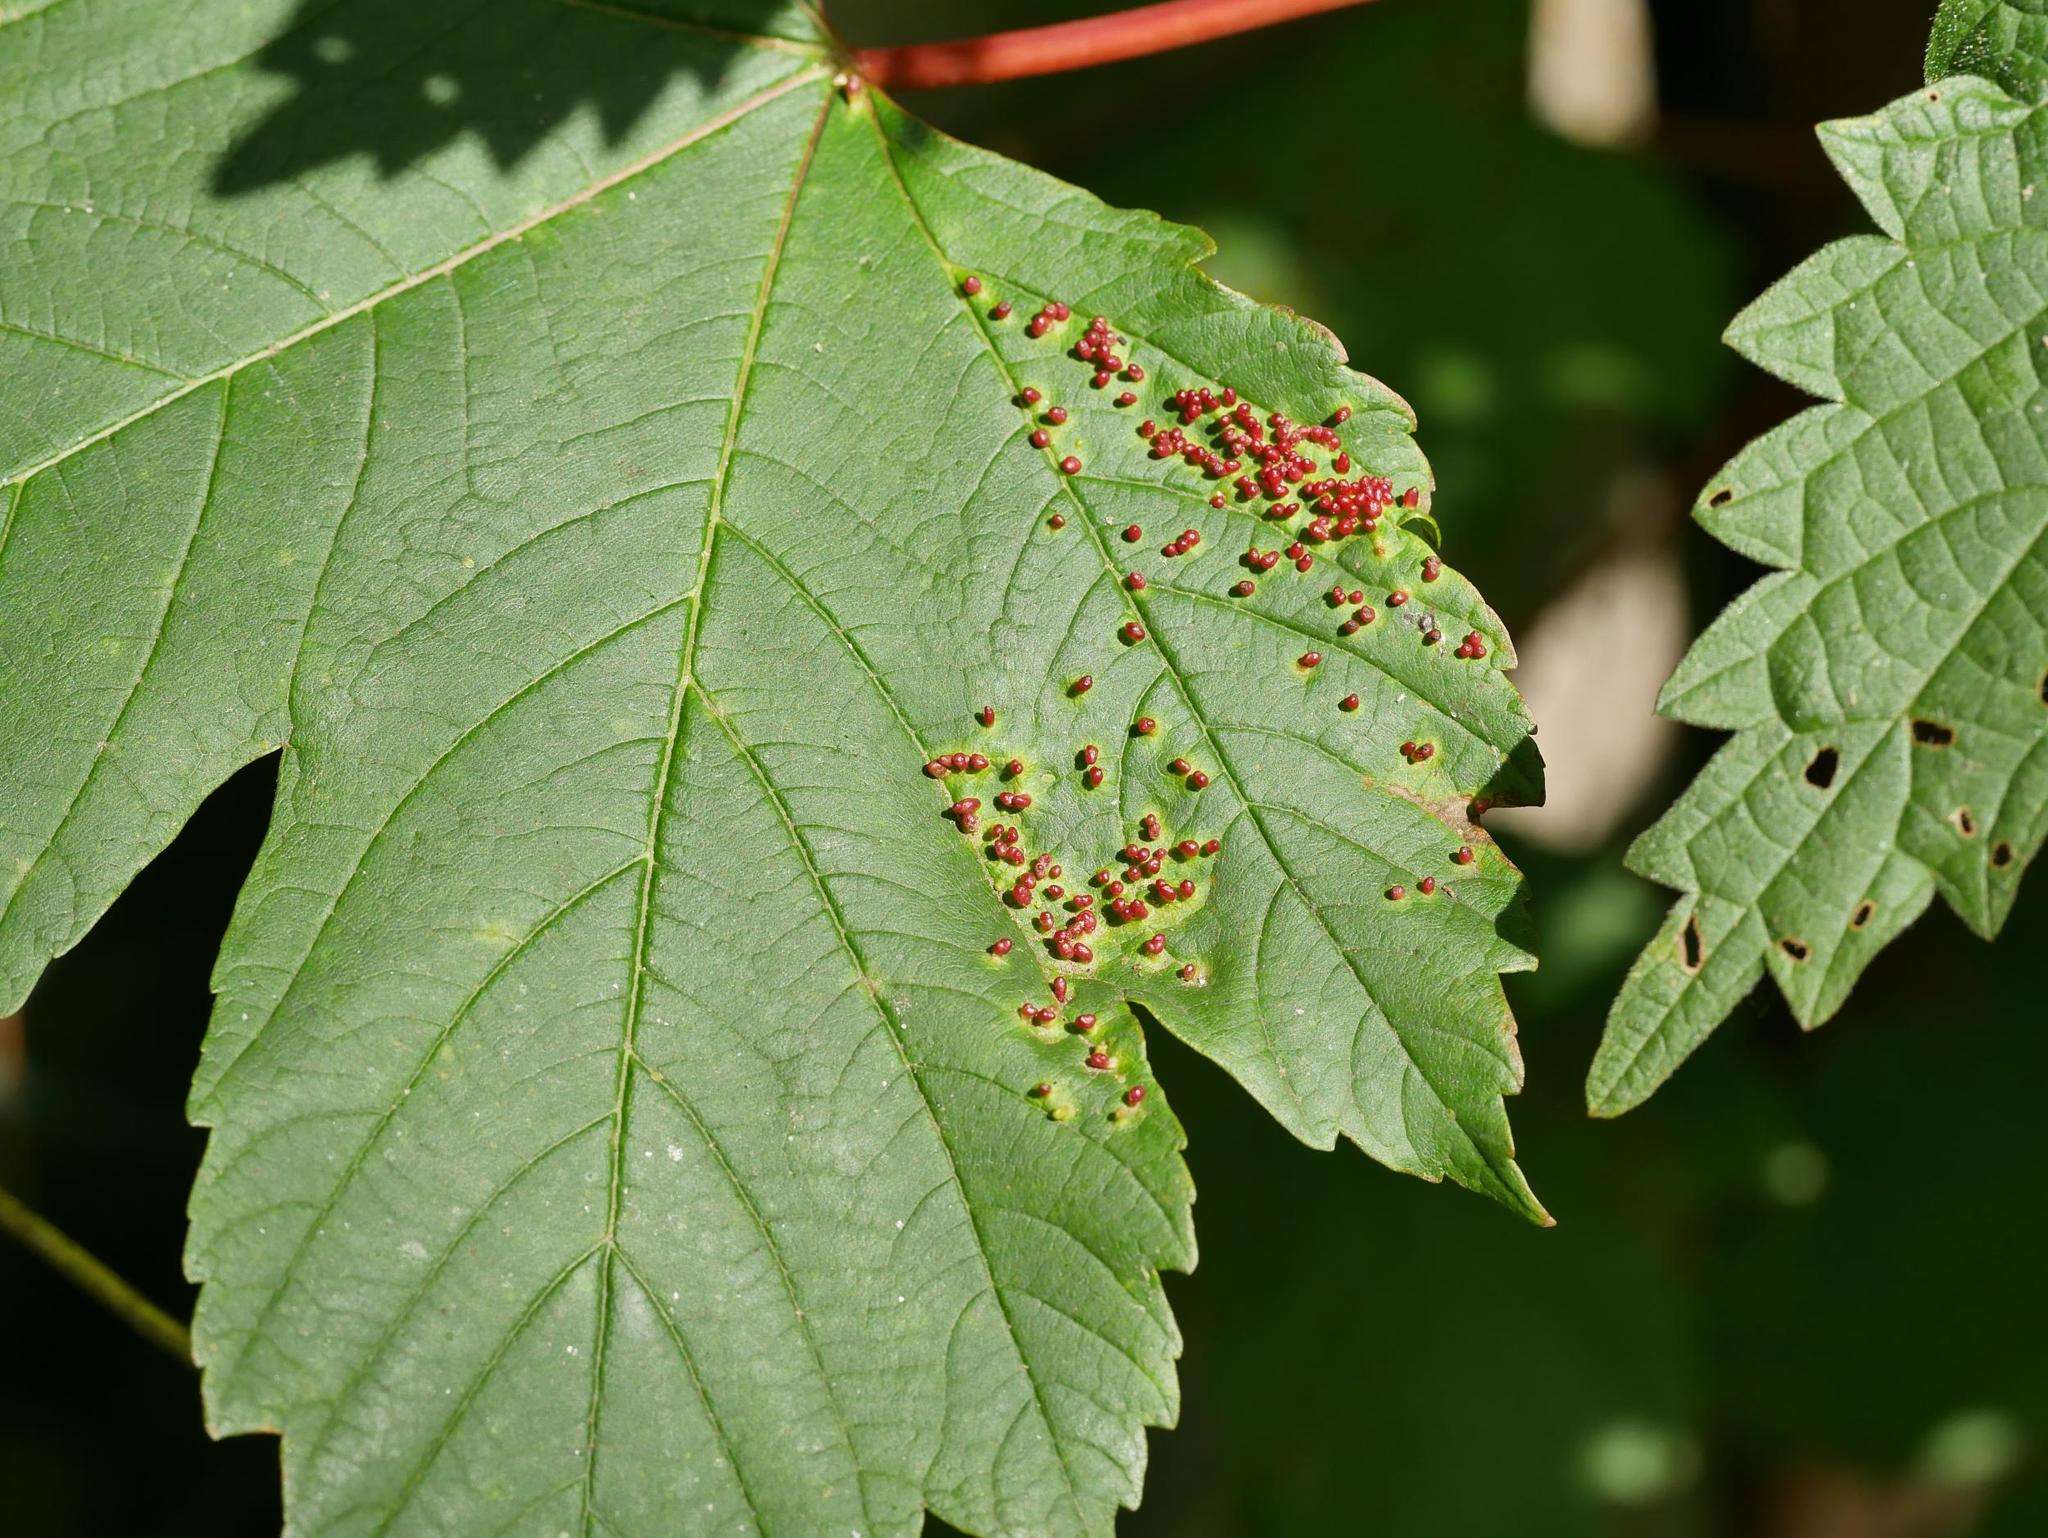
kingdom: Animalia
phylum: Arthropoda
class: Arachnida
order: Trombidiformes
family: Eriophyidae
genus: Aceria
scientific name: Aceria cephaloneus
